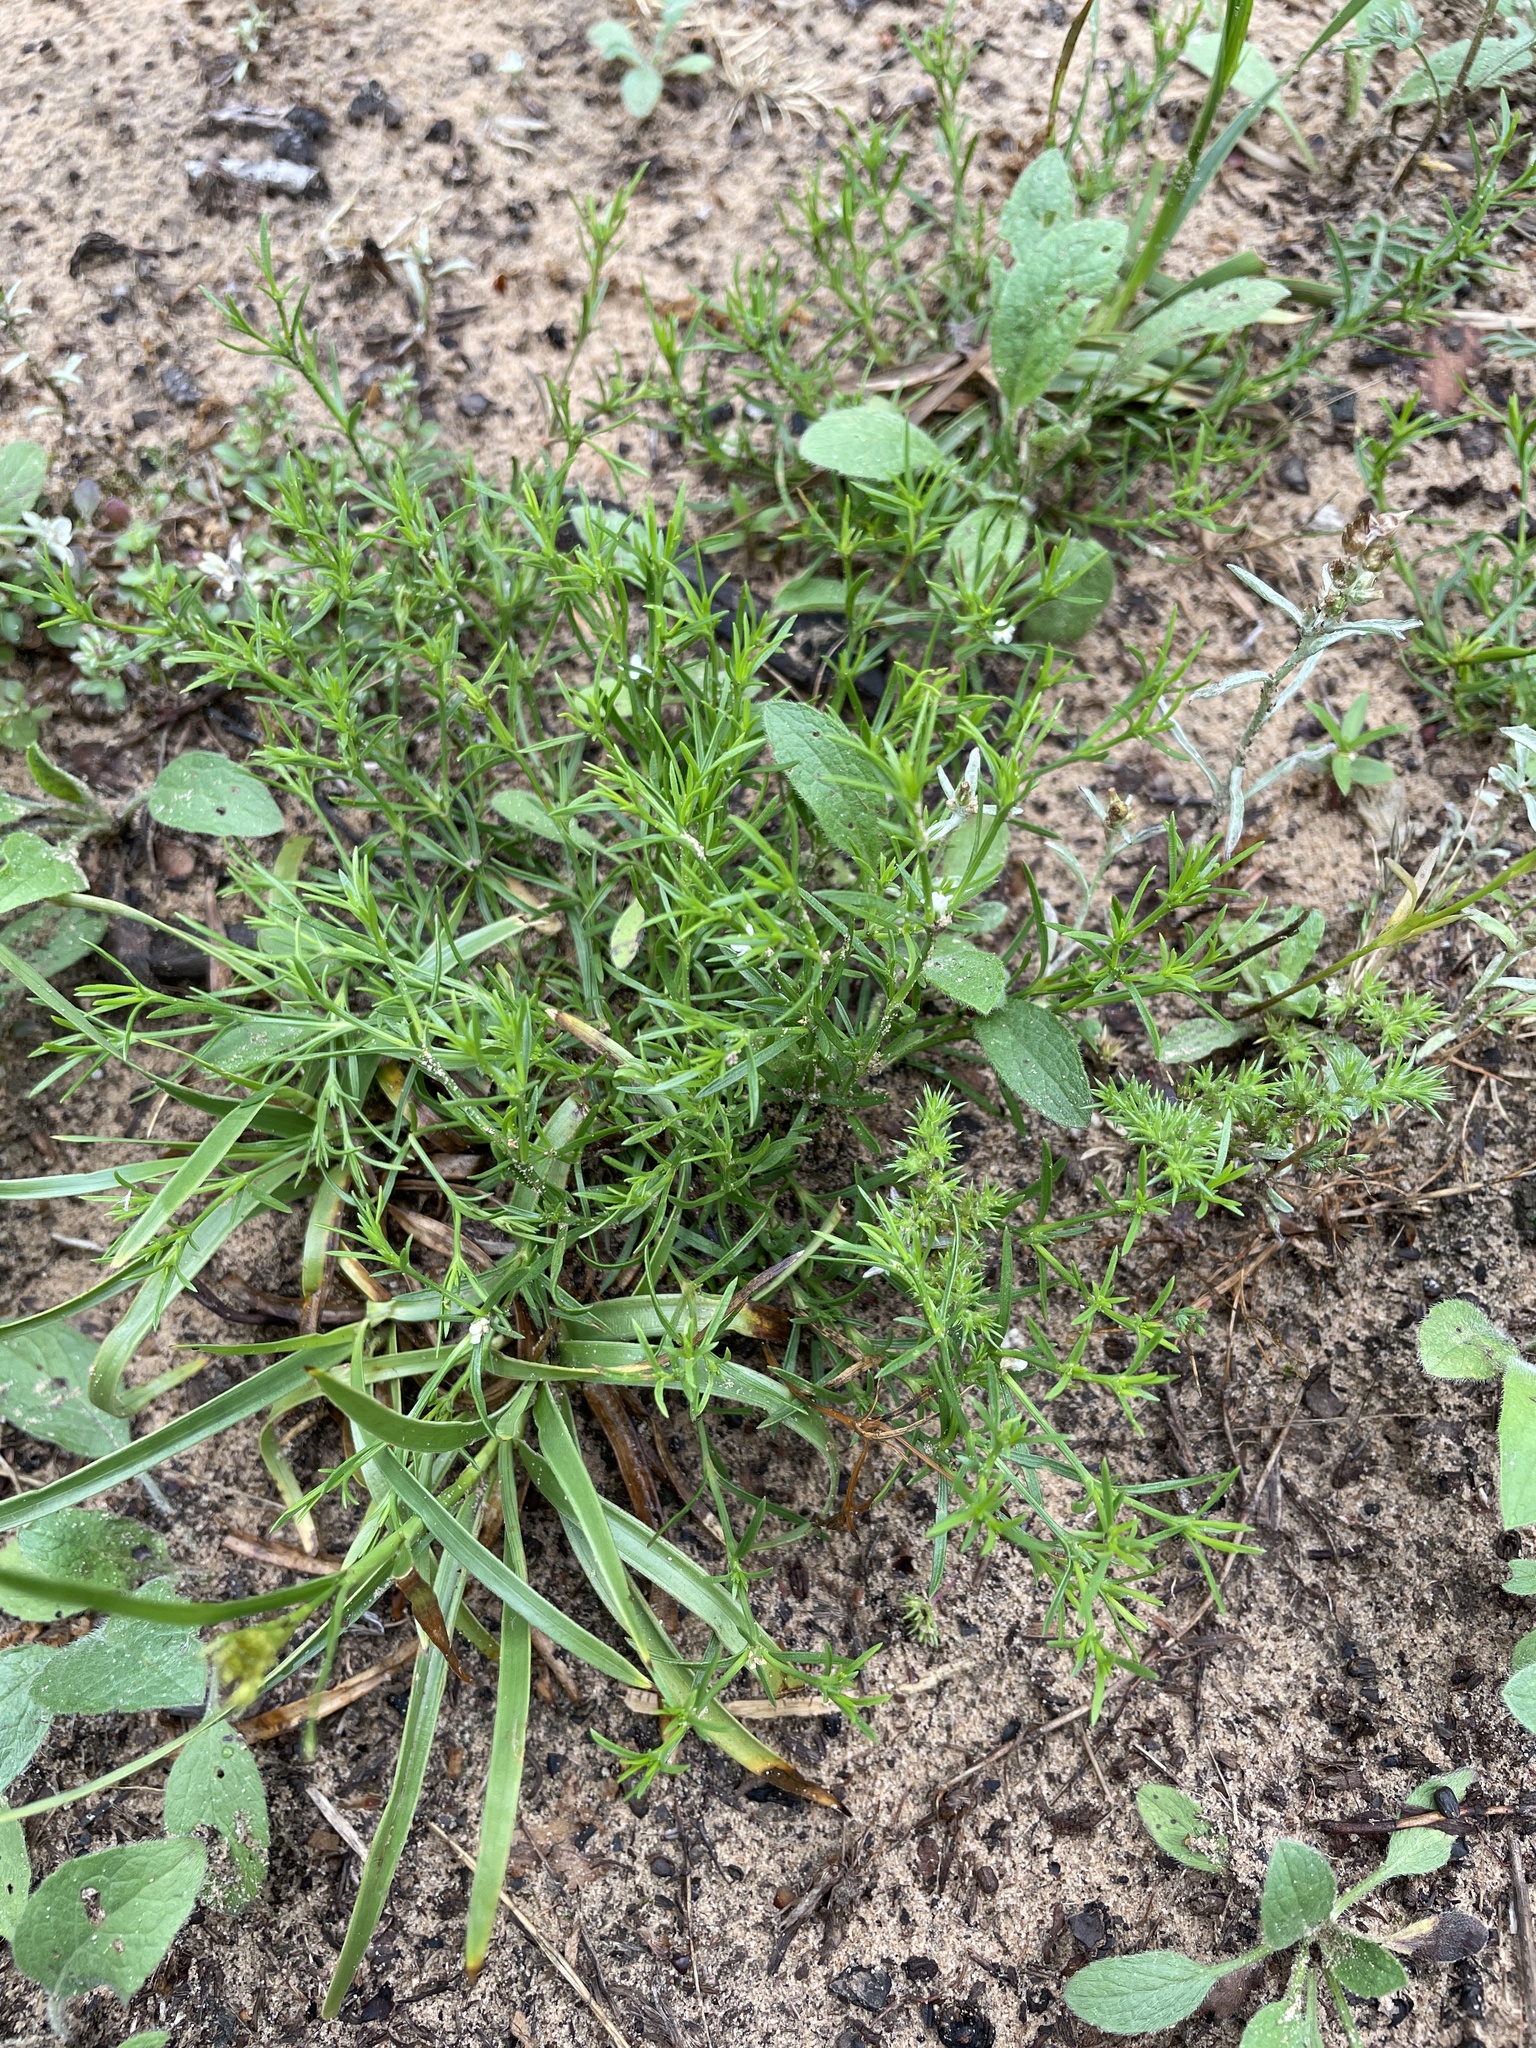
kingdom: Plantae
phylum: Tracheophyta
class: Magnoliopsida
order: Lamiales
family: Tetrachondraceae
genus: Polypremum
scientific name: Polypremum procumbens
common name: Juniper-leaf
